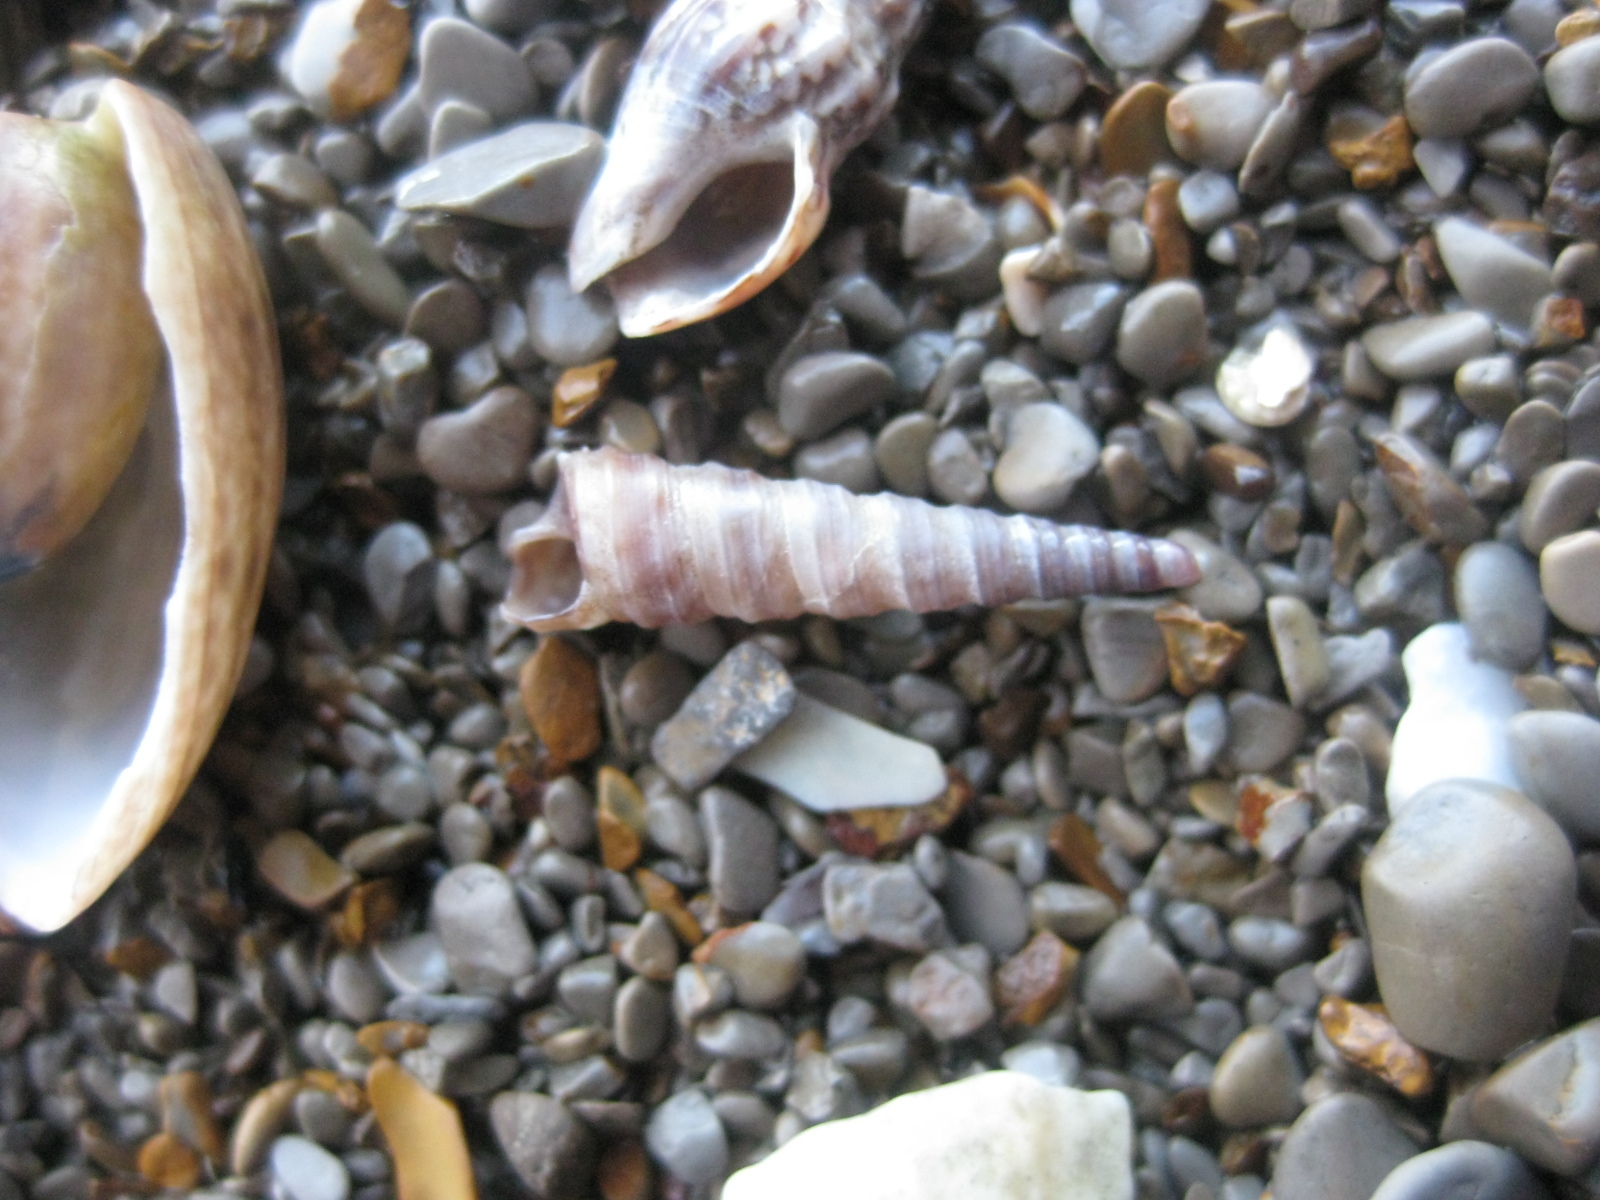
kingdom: Animalia
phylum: Mollusca
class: Gastropoda
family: Turritellidae
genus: Stiracolpus
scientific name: Stiracolpus pagoda
